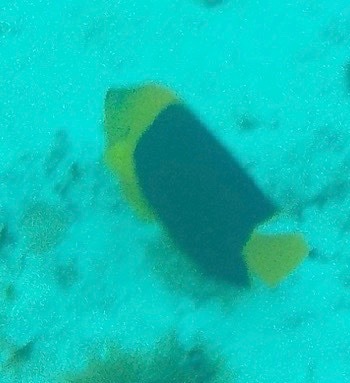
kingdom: Animalia
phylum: Chordata
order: Perciformes
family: Pomacanthidae
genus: Holacanthus
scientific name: Holacanthus tricolor
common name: Rock beauty
